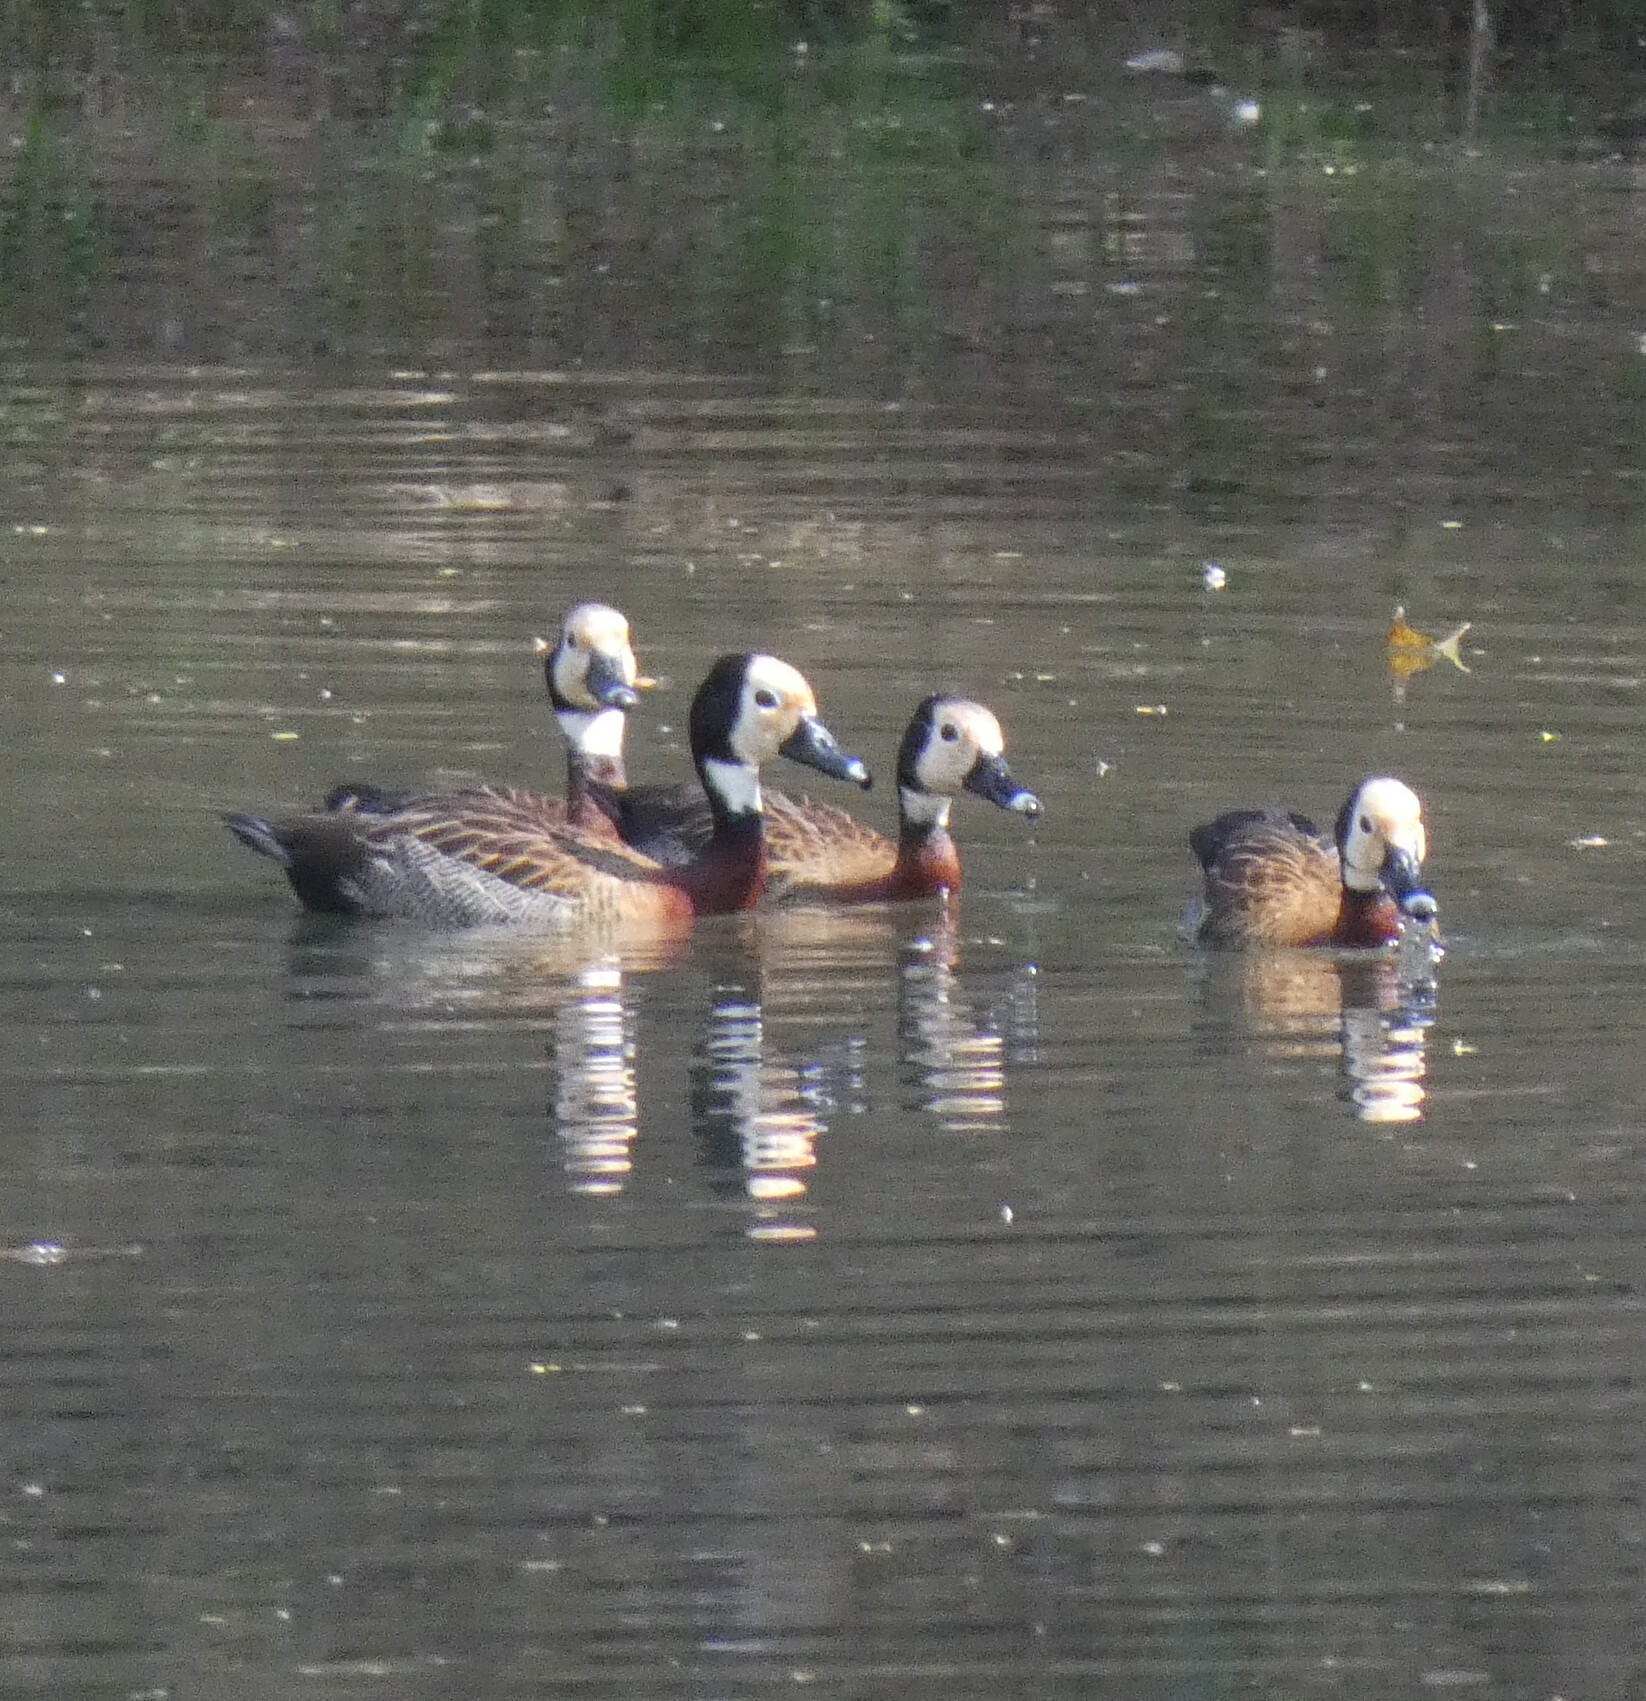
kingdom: Animalia
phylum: Chordata
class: Aves
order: Anseriformes
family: Anatidae
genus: Dendrocygna
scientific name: Dendrocygna viduata
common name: White-faced whistling duck
